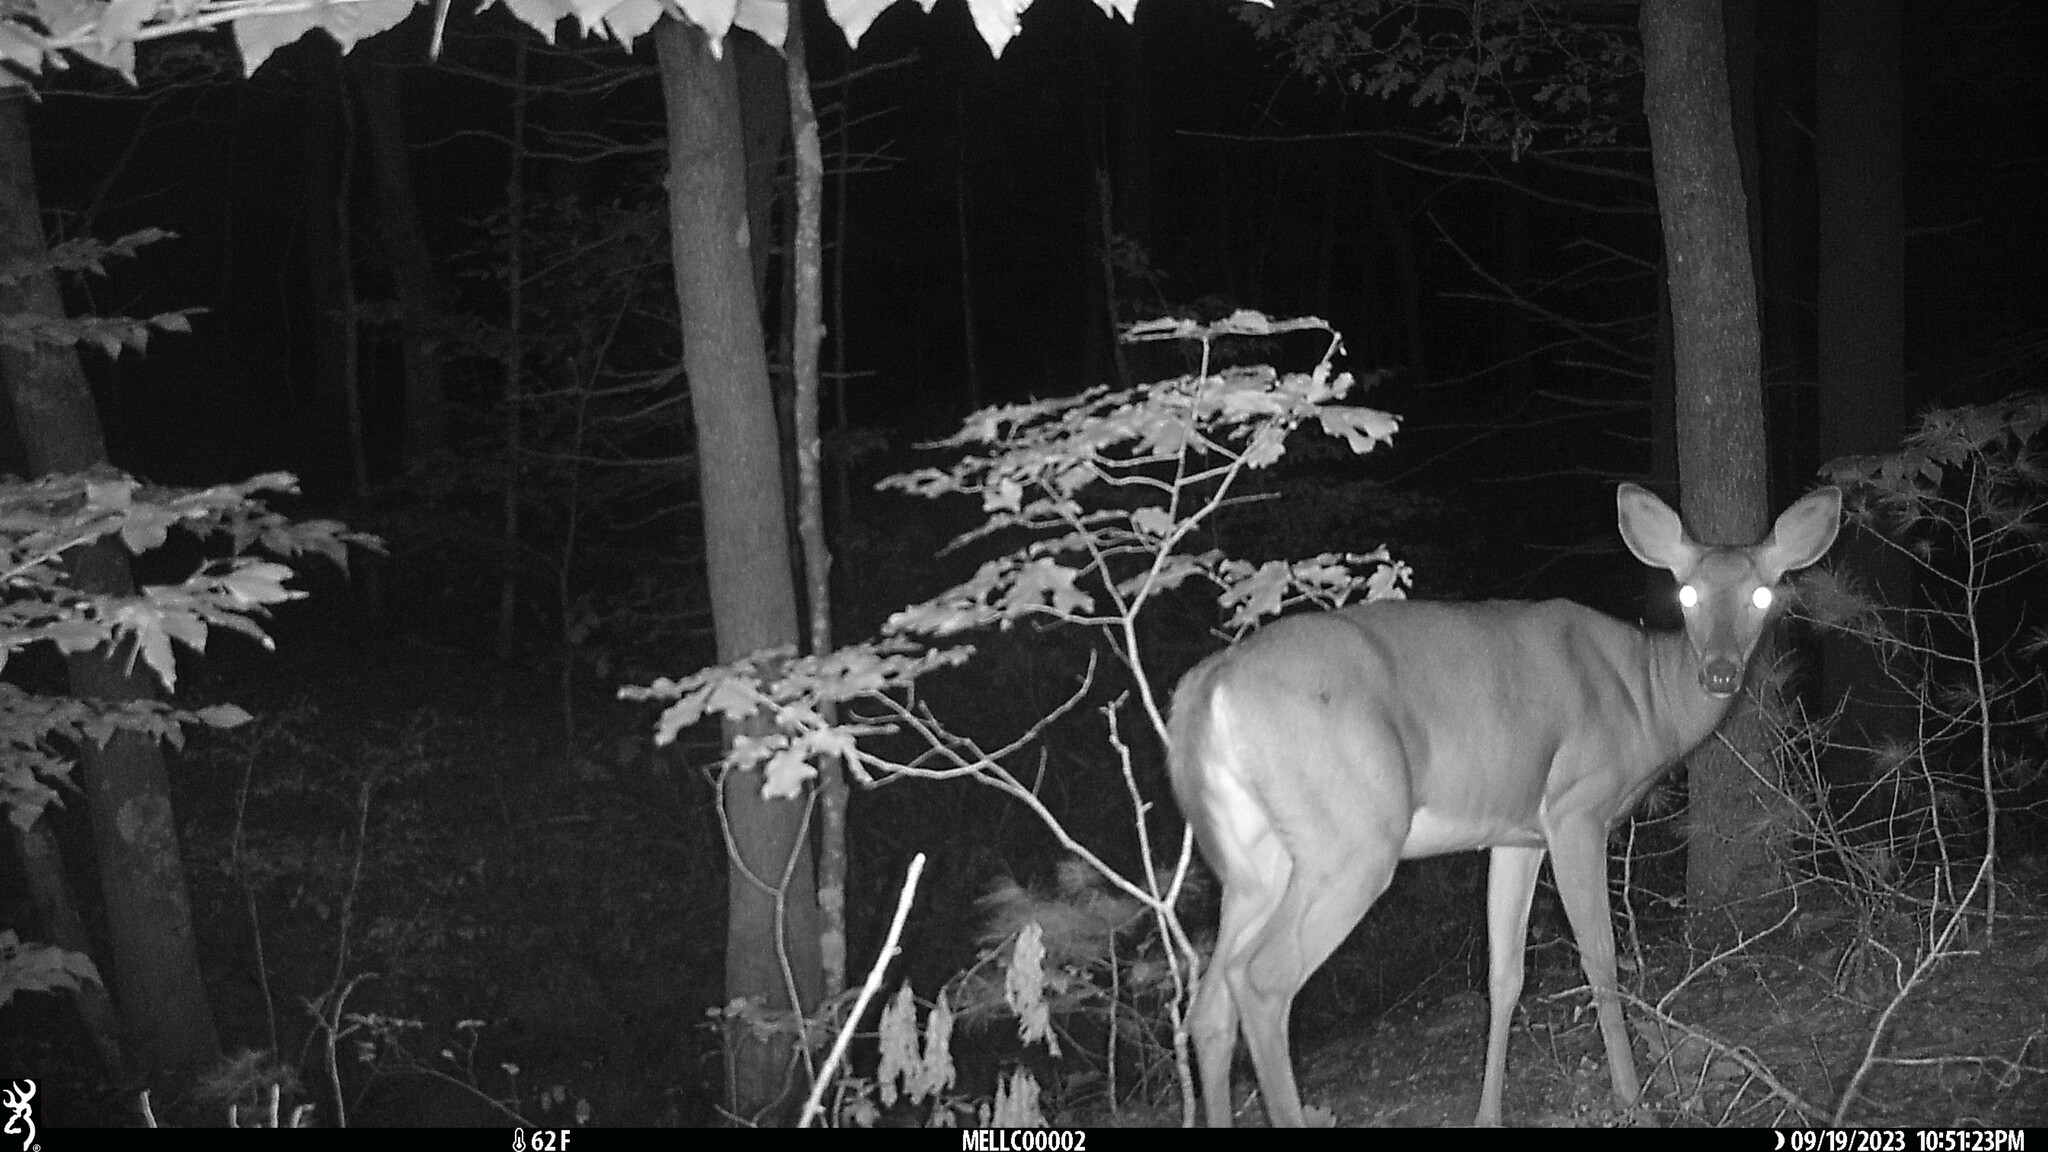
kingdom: Animalia
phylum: Chordata
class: Mammalia
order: Artiodactyla
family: Cervidae
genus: Odocoileus
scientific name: Odocoileus virginianus
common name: White-tailed deer
